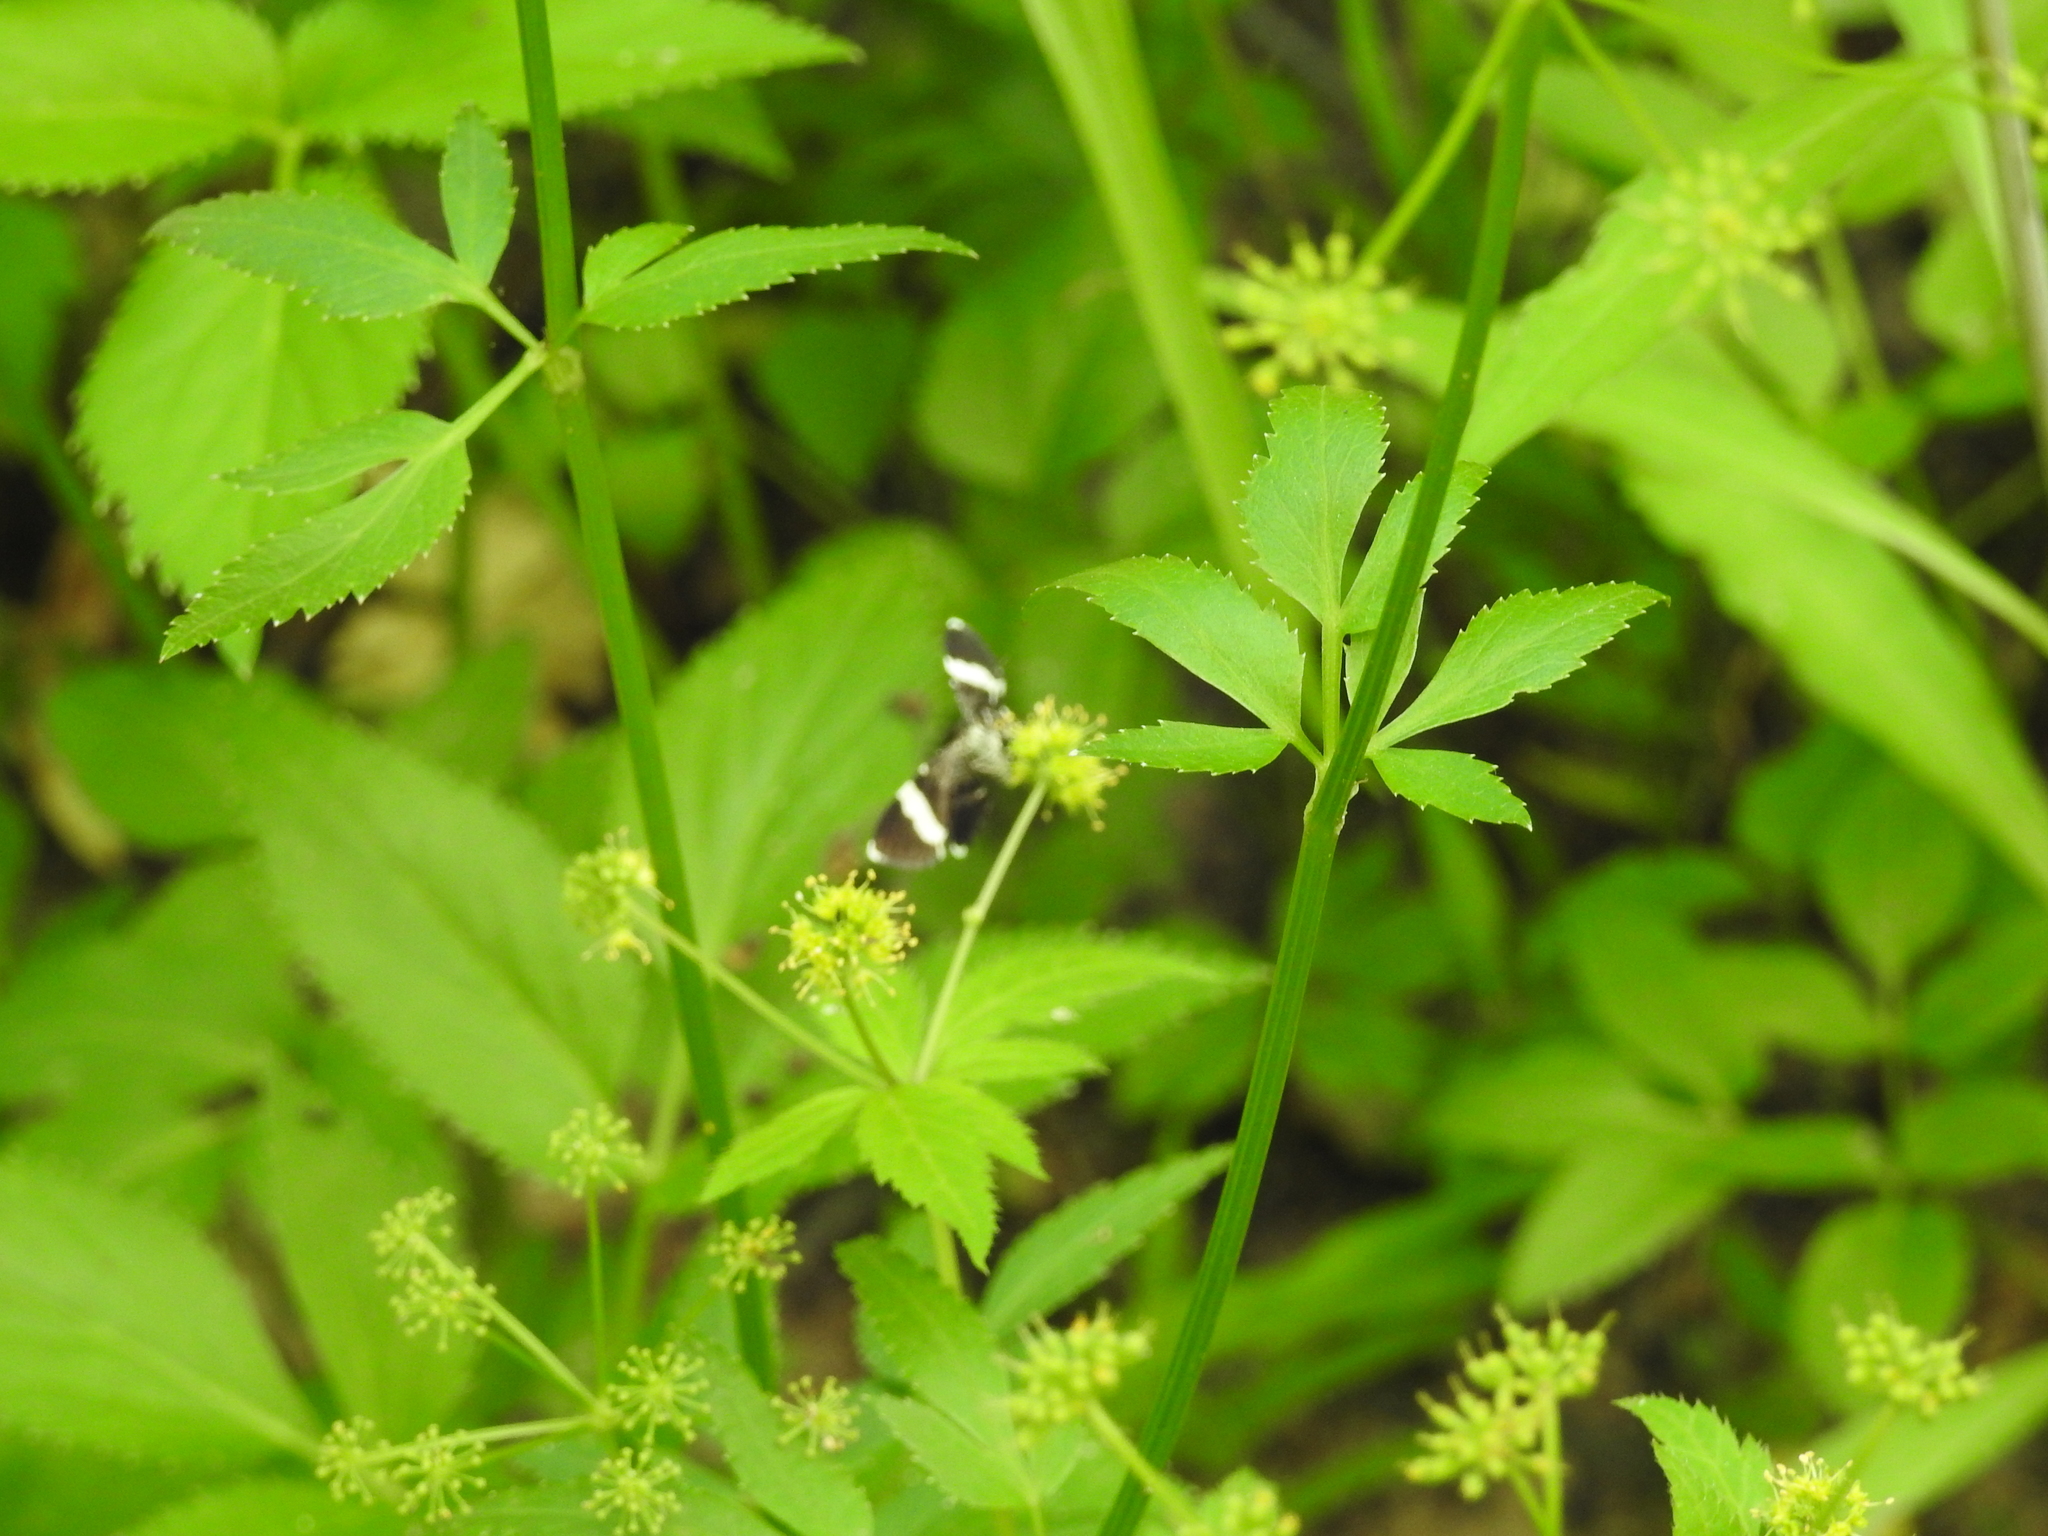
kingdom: Animalia
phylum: Arthropoda
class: Insecta
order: Lepidoptera
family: Geometridae
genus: Trichodezia
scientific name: Trichodezia albovittata
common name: White striped black
